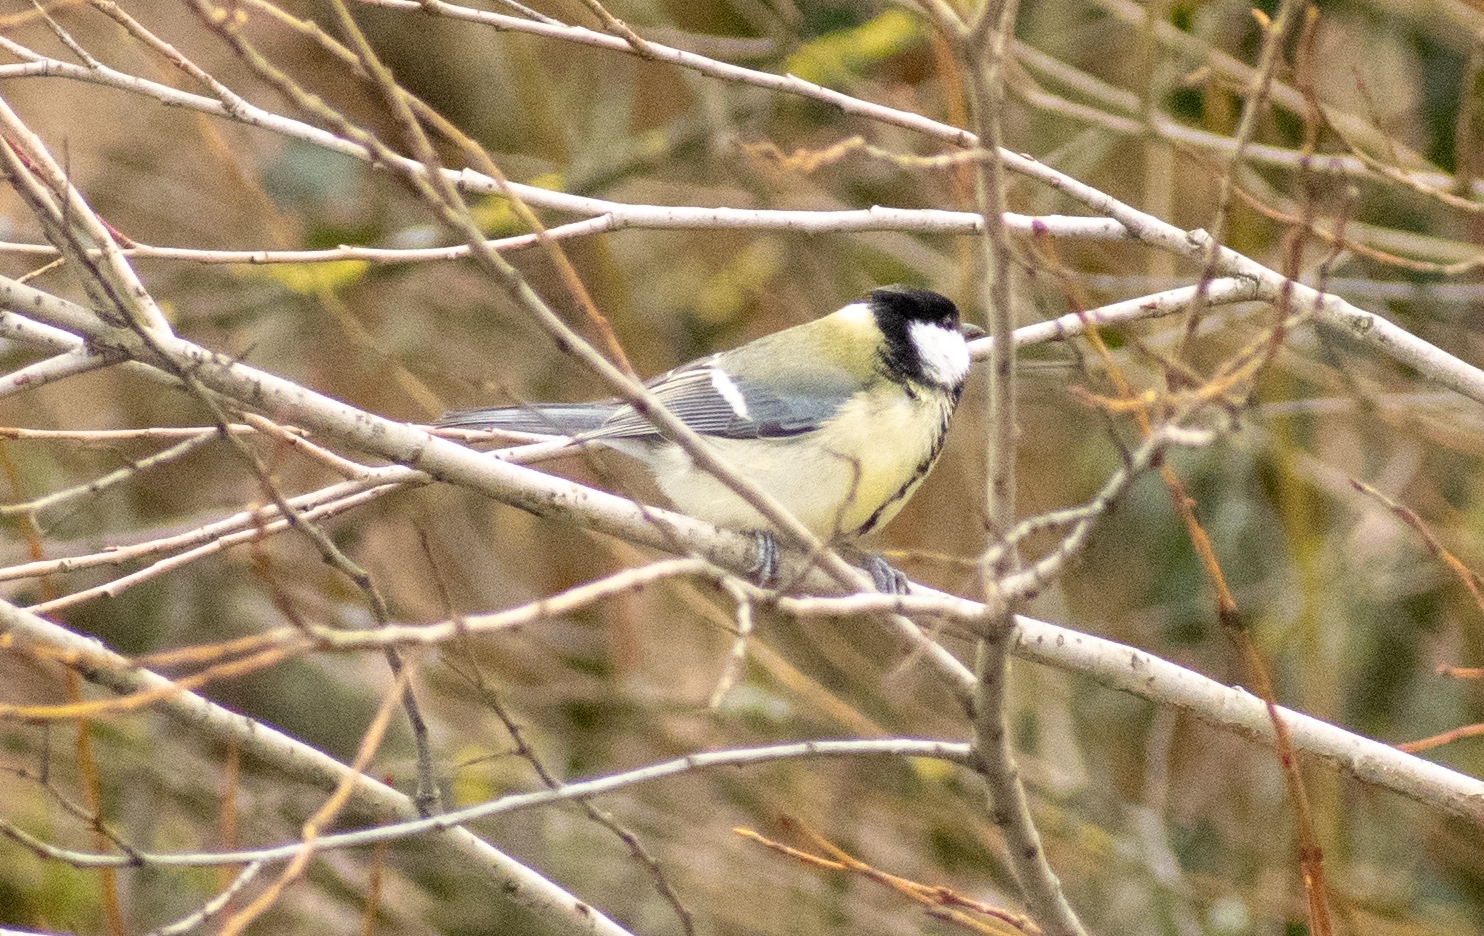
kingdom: Animalia
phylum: Chordata
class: Aves
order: Passeriformes
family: Paridae
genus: Parus
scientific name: Parus major
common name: Great tit
